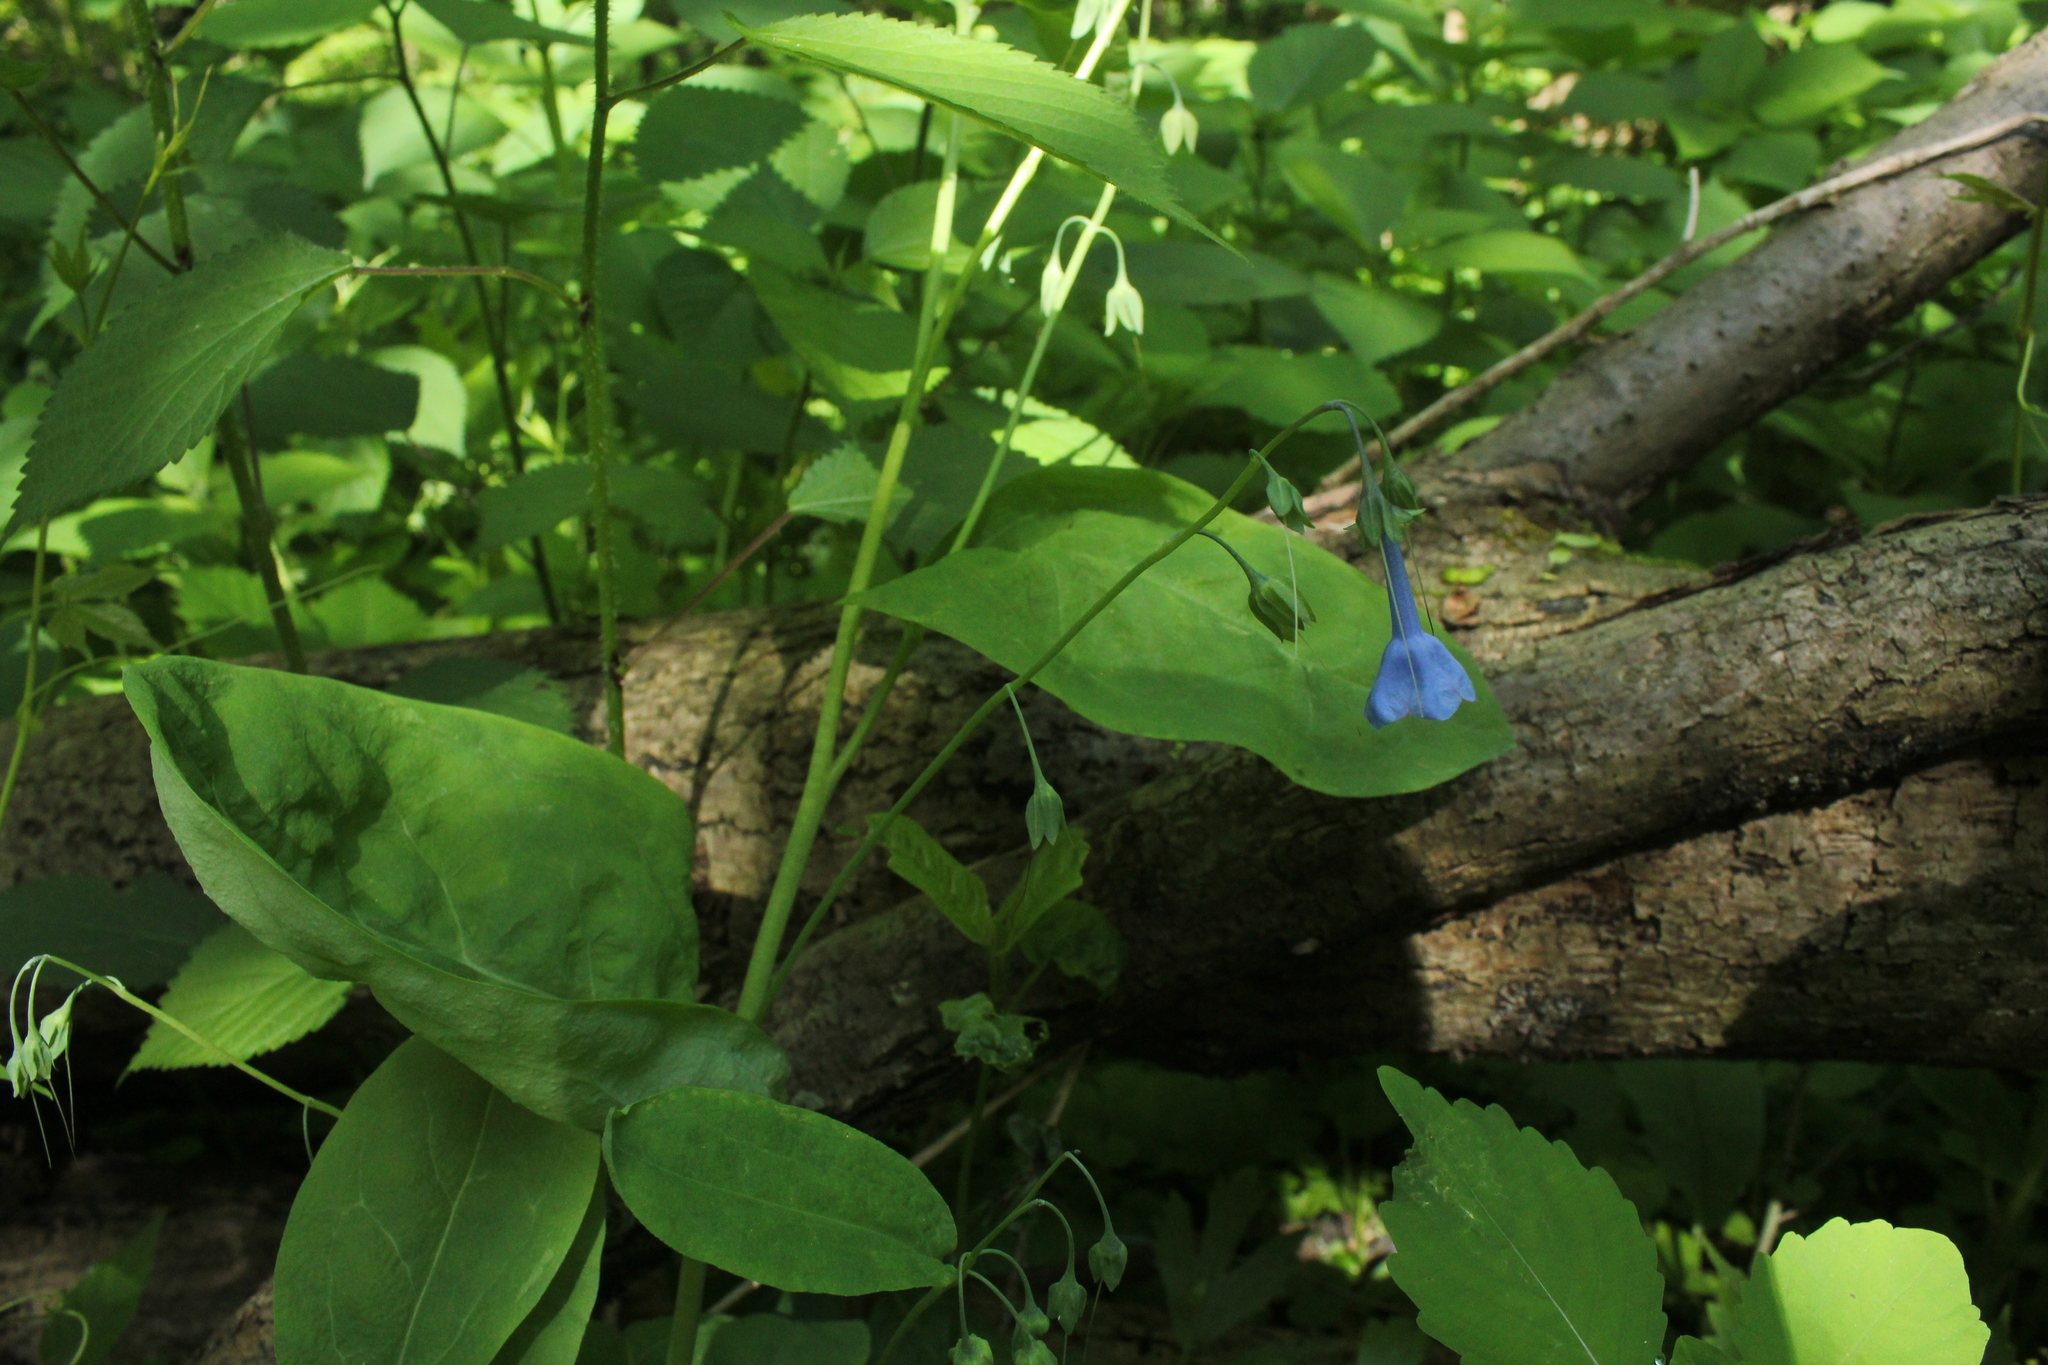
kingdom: Plantae
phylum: Tracheophyta
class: Magnoliopsida
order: Boraginales
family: Boraginaceae
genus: Mertensia
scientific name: Mertensia virginica
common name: Virginia bluebells
